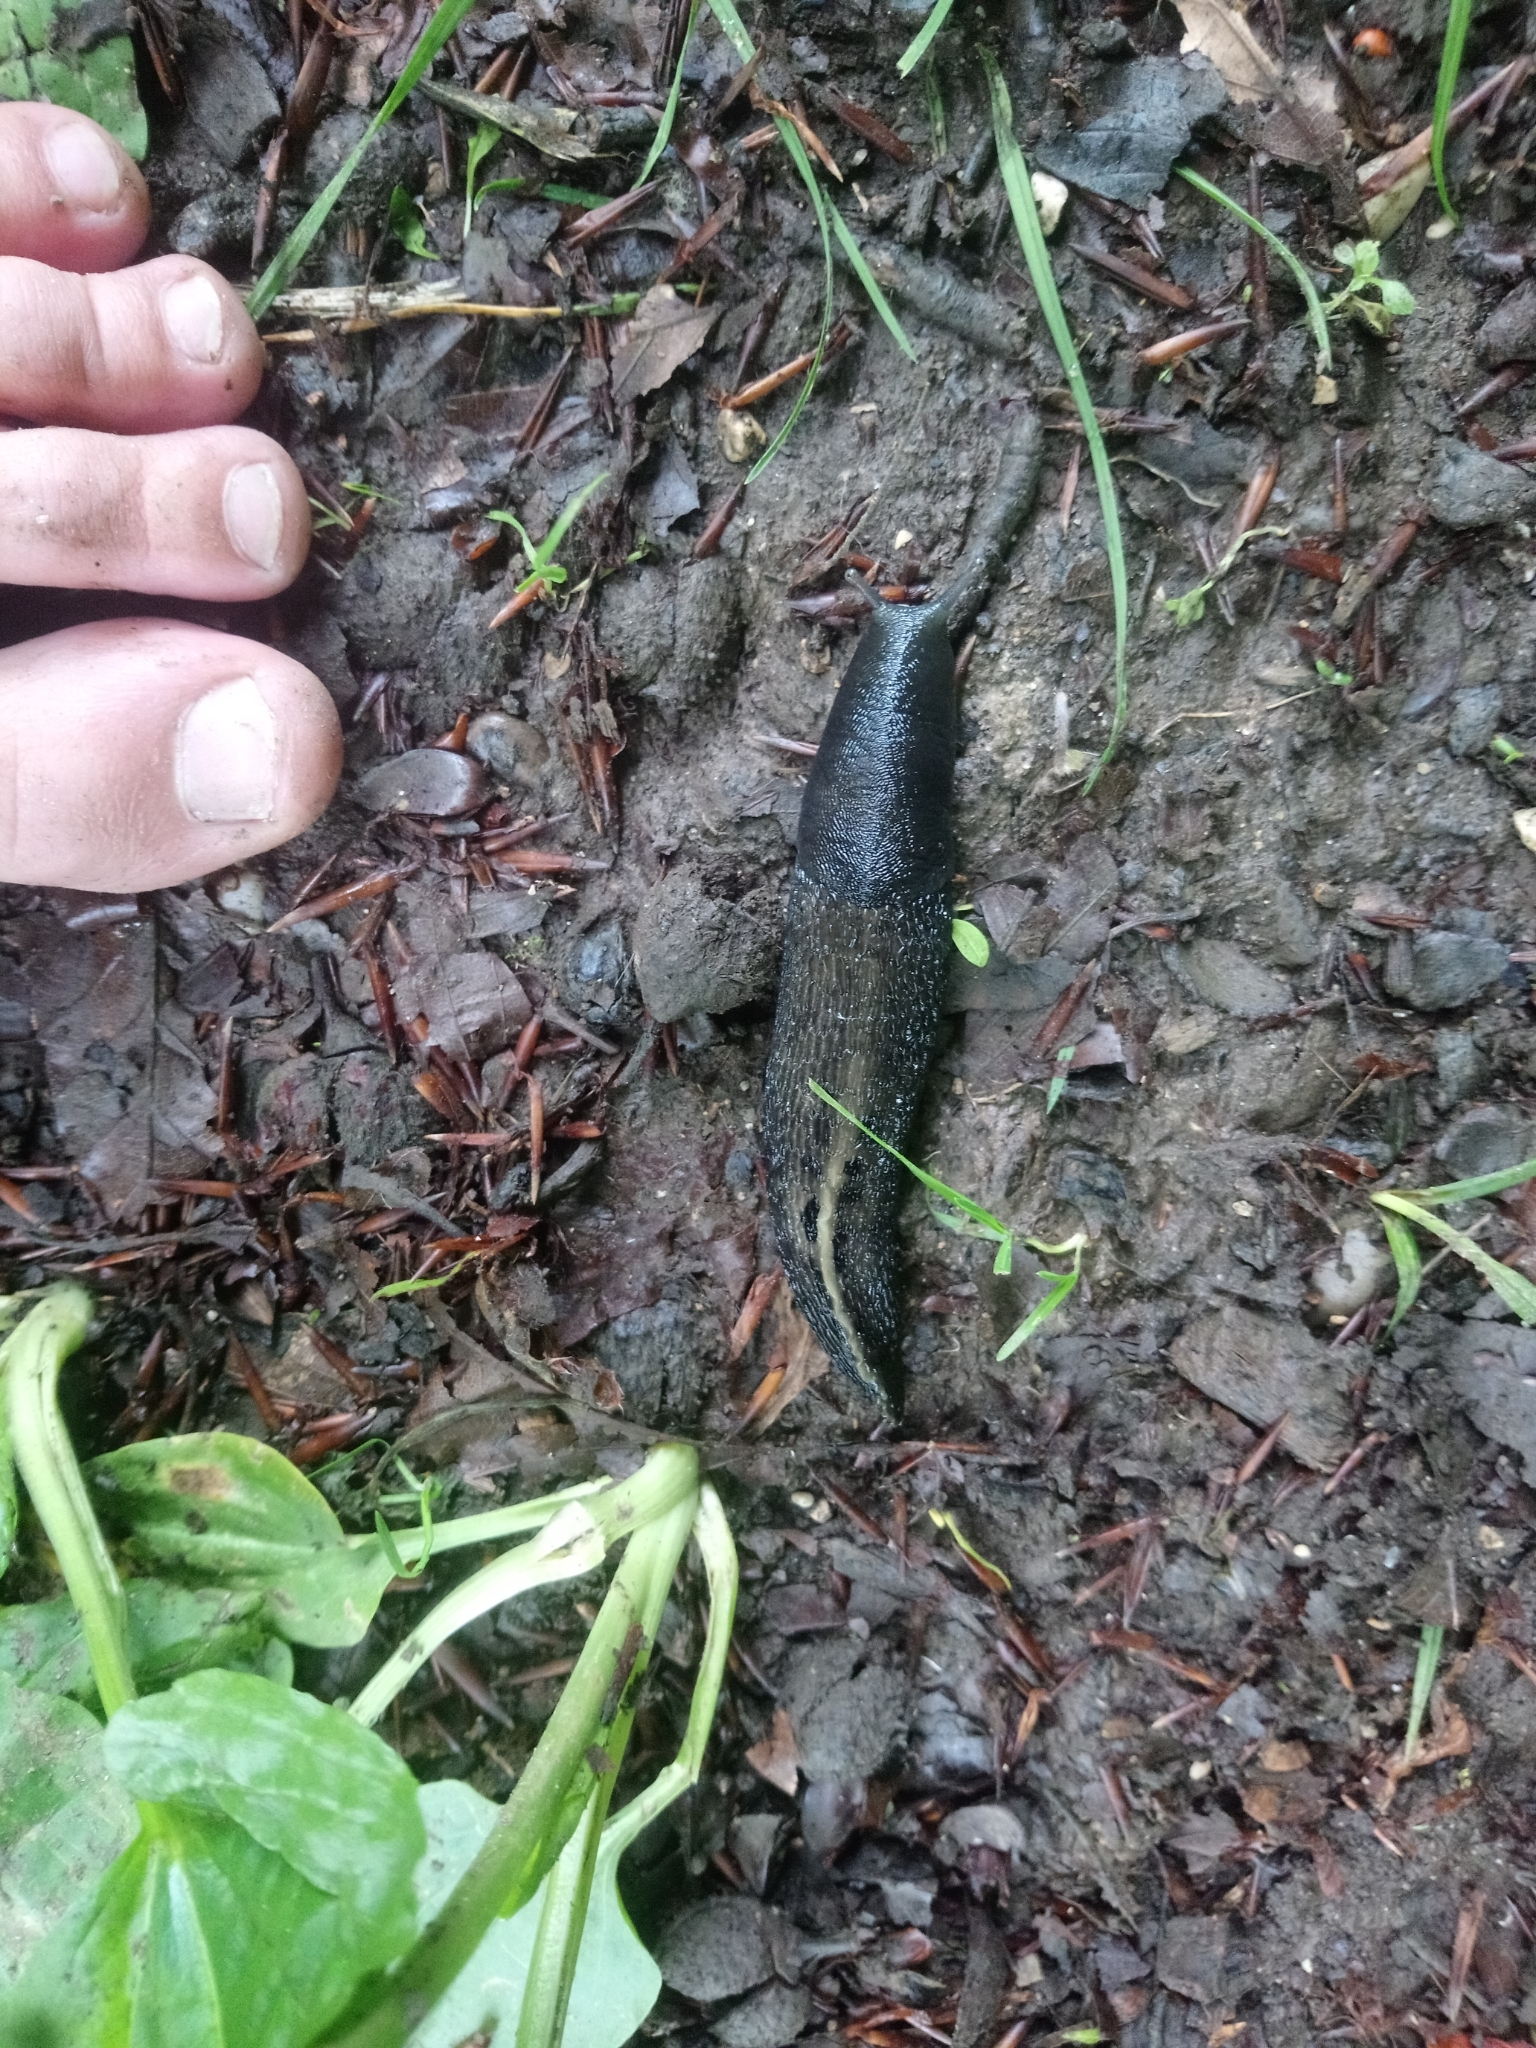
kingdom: Animalia
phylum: Mollusca
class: Gastropoda
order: Stylommatophora
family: Limacidae
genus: Limax
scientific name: Limax cinereoniger
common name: Ash-black slug
